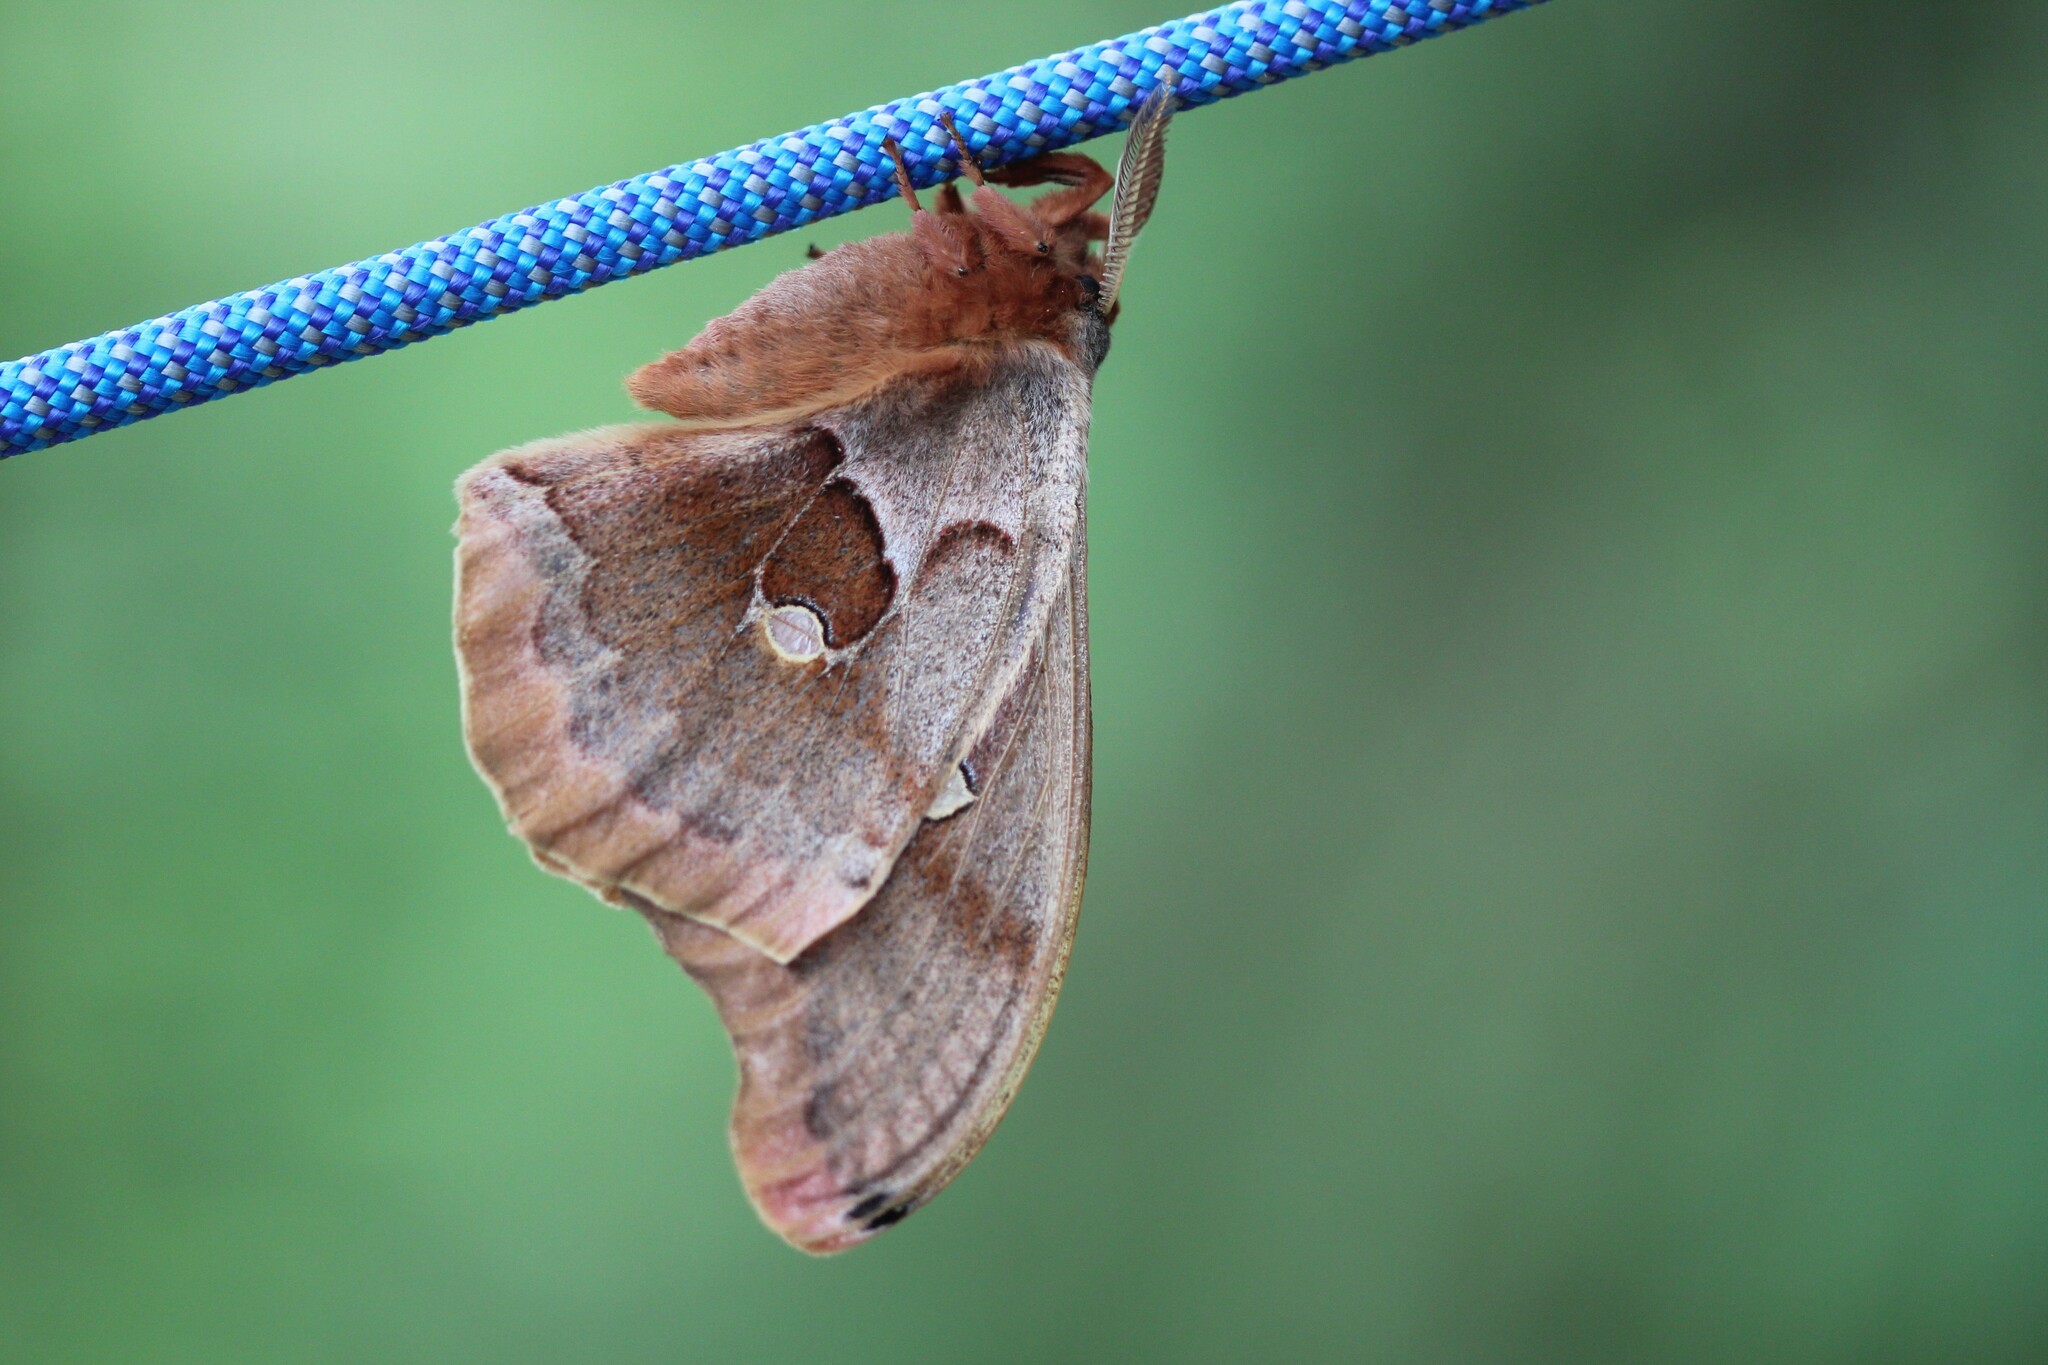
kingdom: Animalia
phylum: Arthropoda
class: Insecta
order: Lepidoptera
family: Saturniidae
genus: Antheraea
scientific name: Antheraea polyphemus
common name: Polyphemus moth
